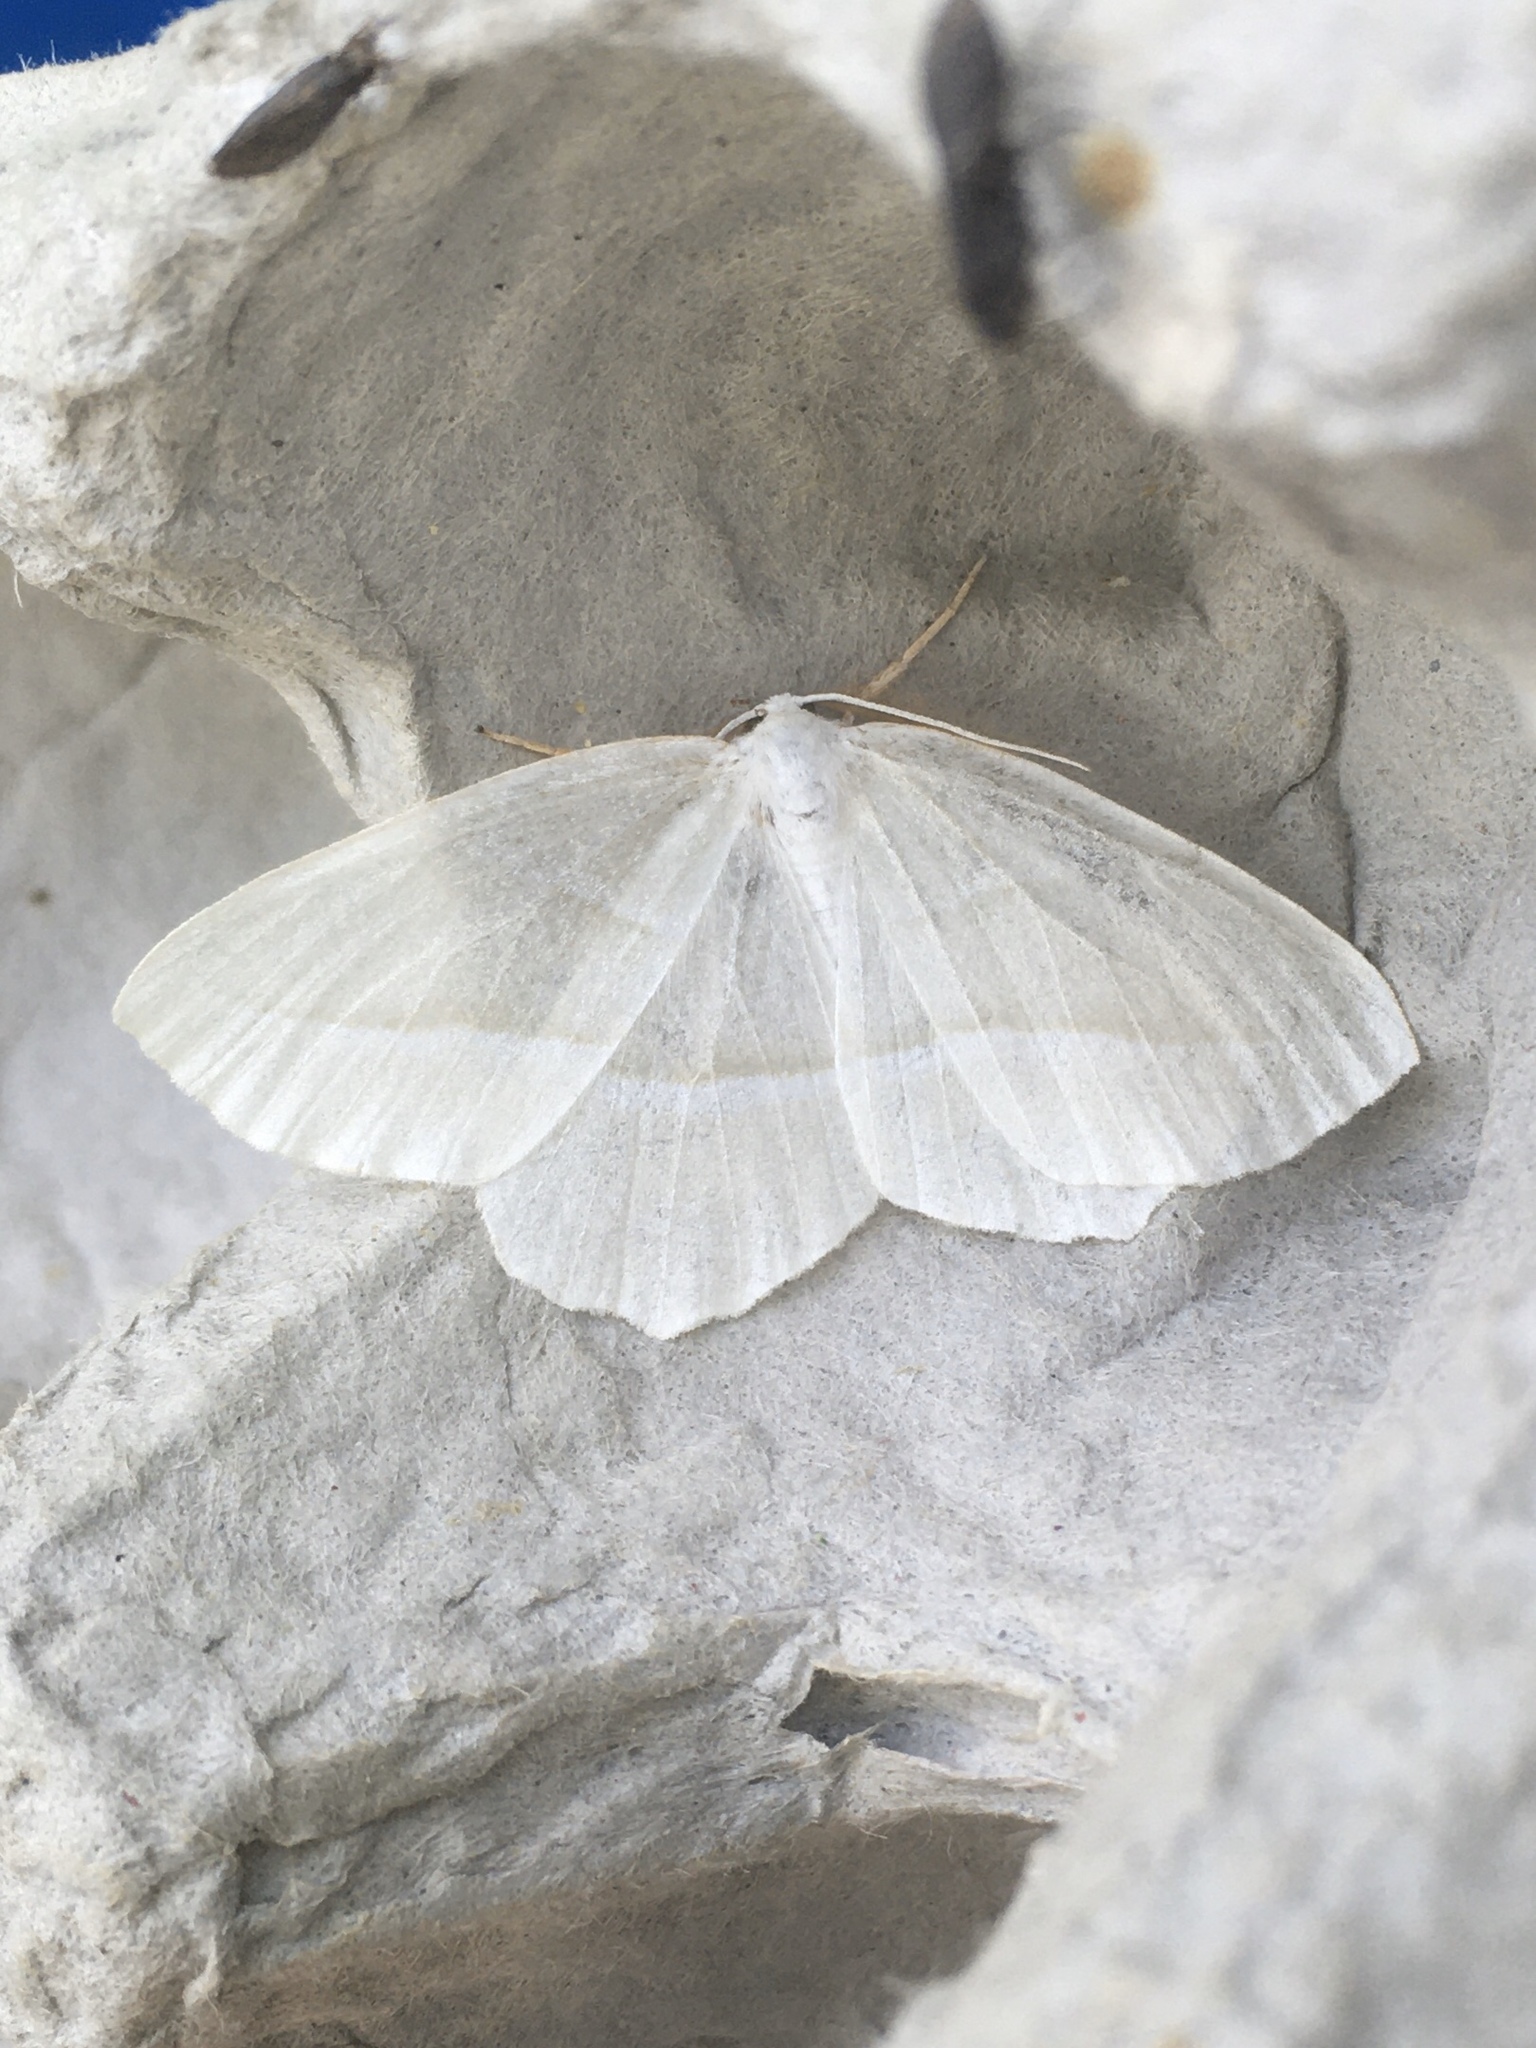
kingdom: Animalia
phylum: Arthropoda
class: Insecta
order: Lepidoptera
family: Geometridae
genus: Campaea
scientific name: Campaea perlata
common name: Fringed looper
